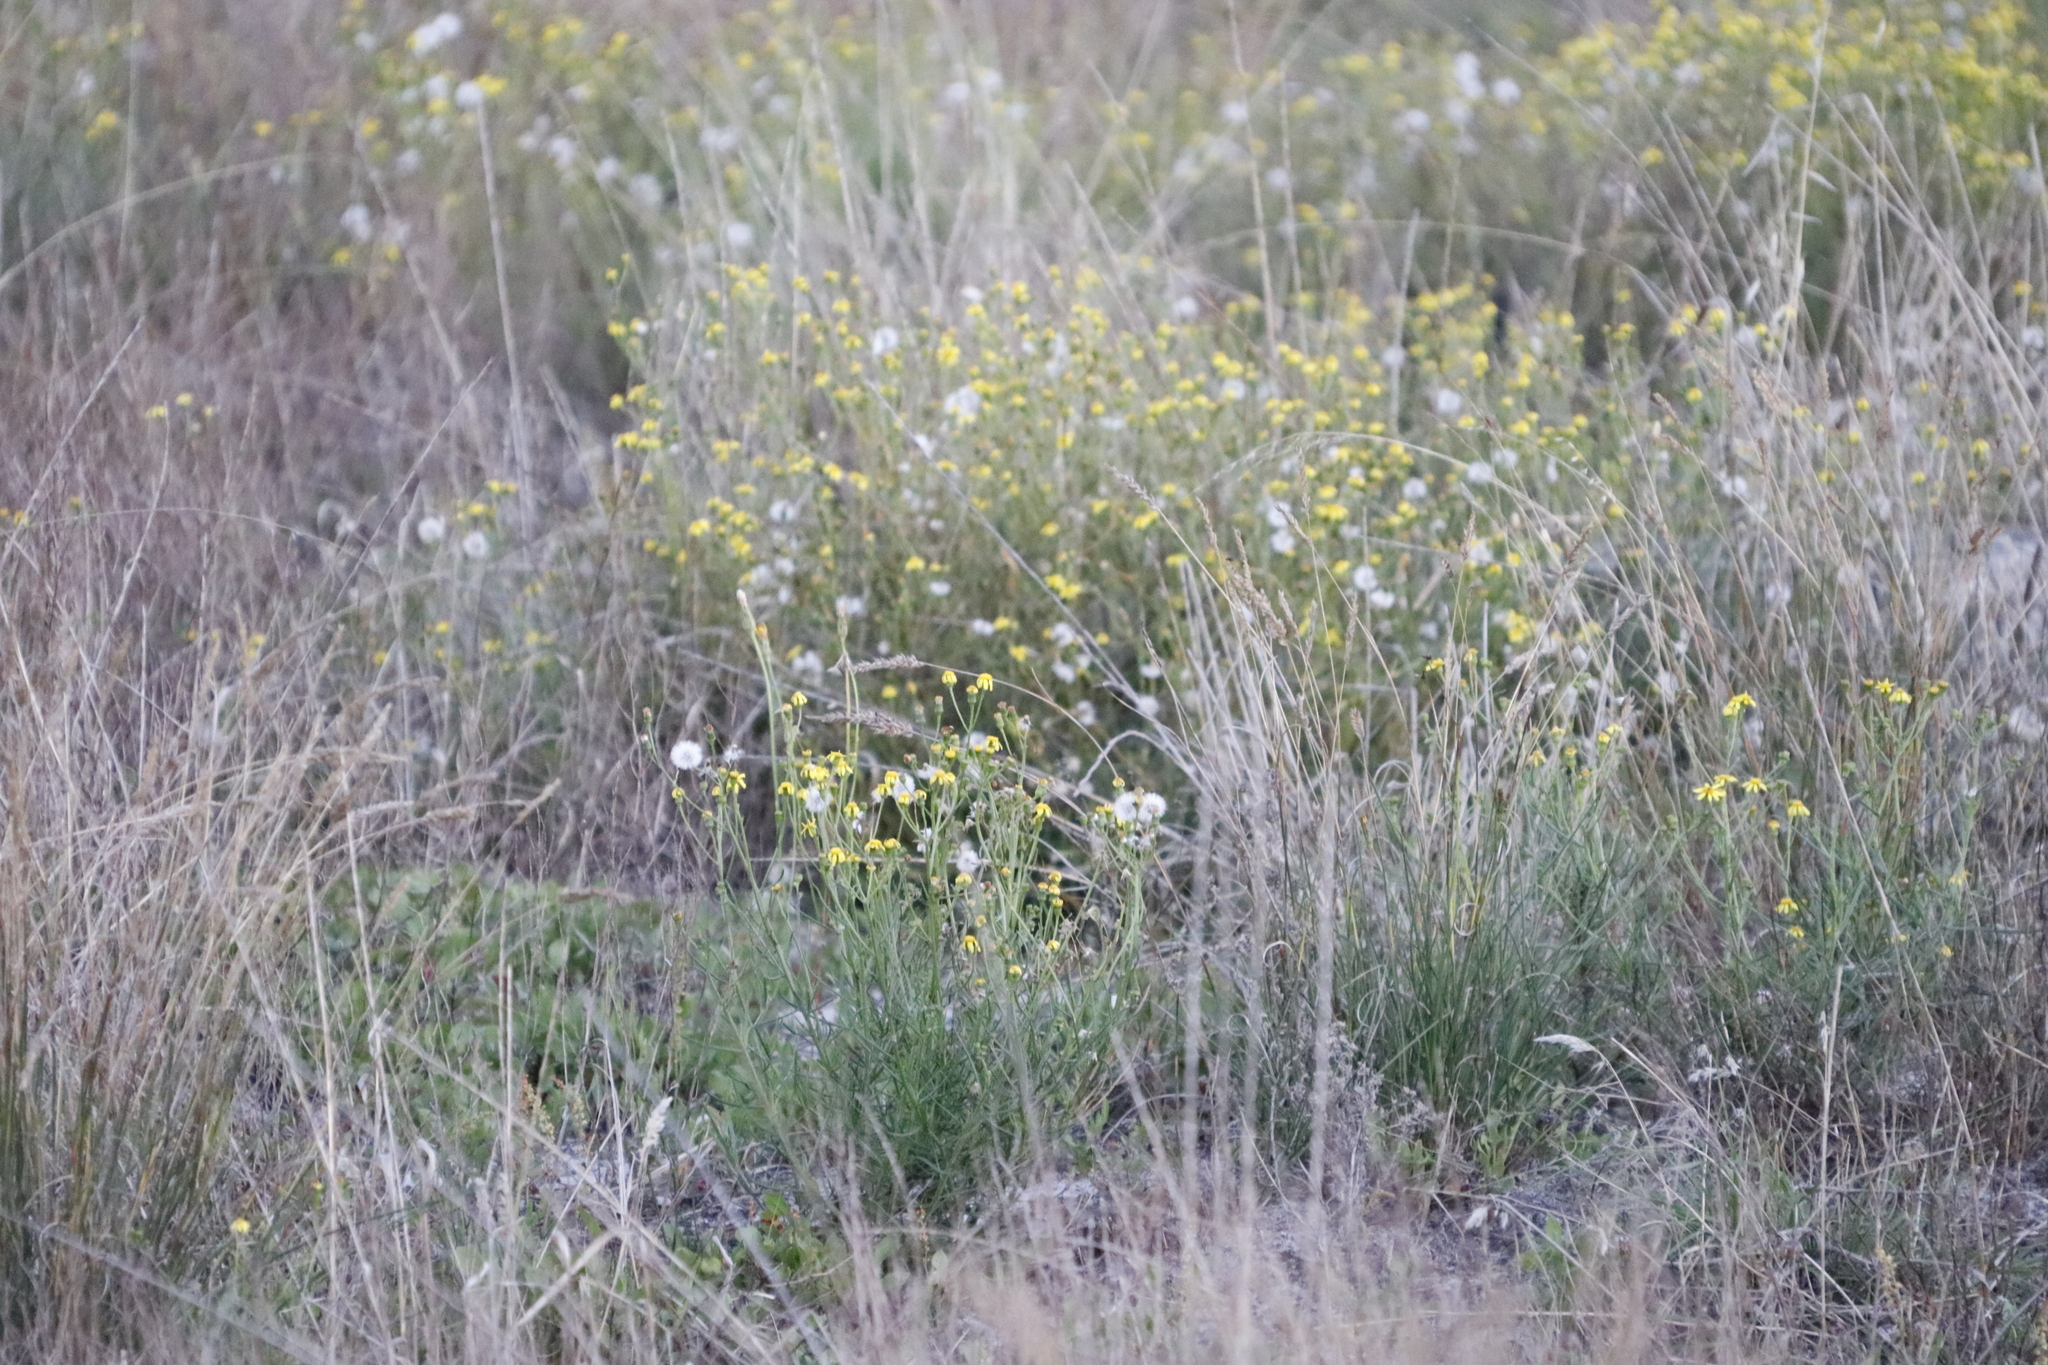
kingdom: Plantae
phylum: Tracheophyta
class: Magnoliopsida
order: Asterales
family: Asteraceae
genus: Senecio
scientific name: Senecio burchellii
